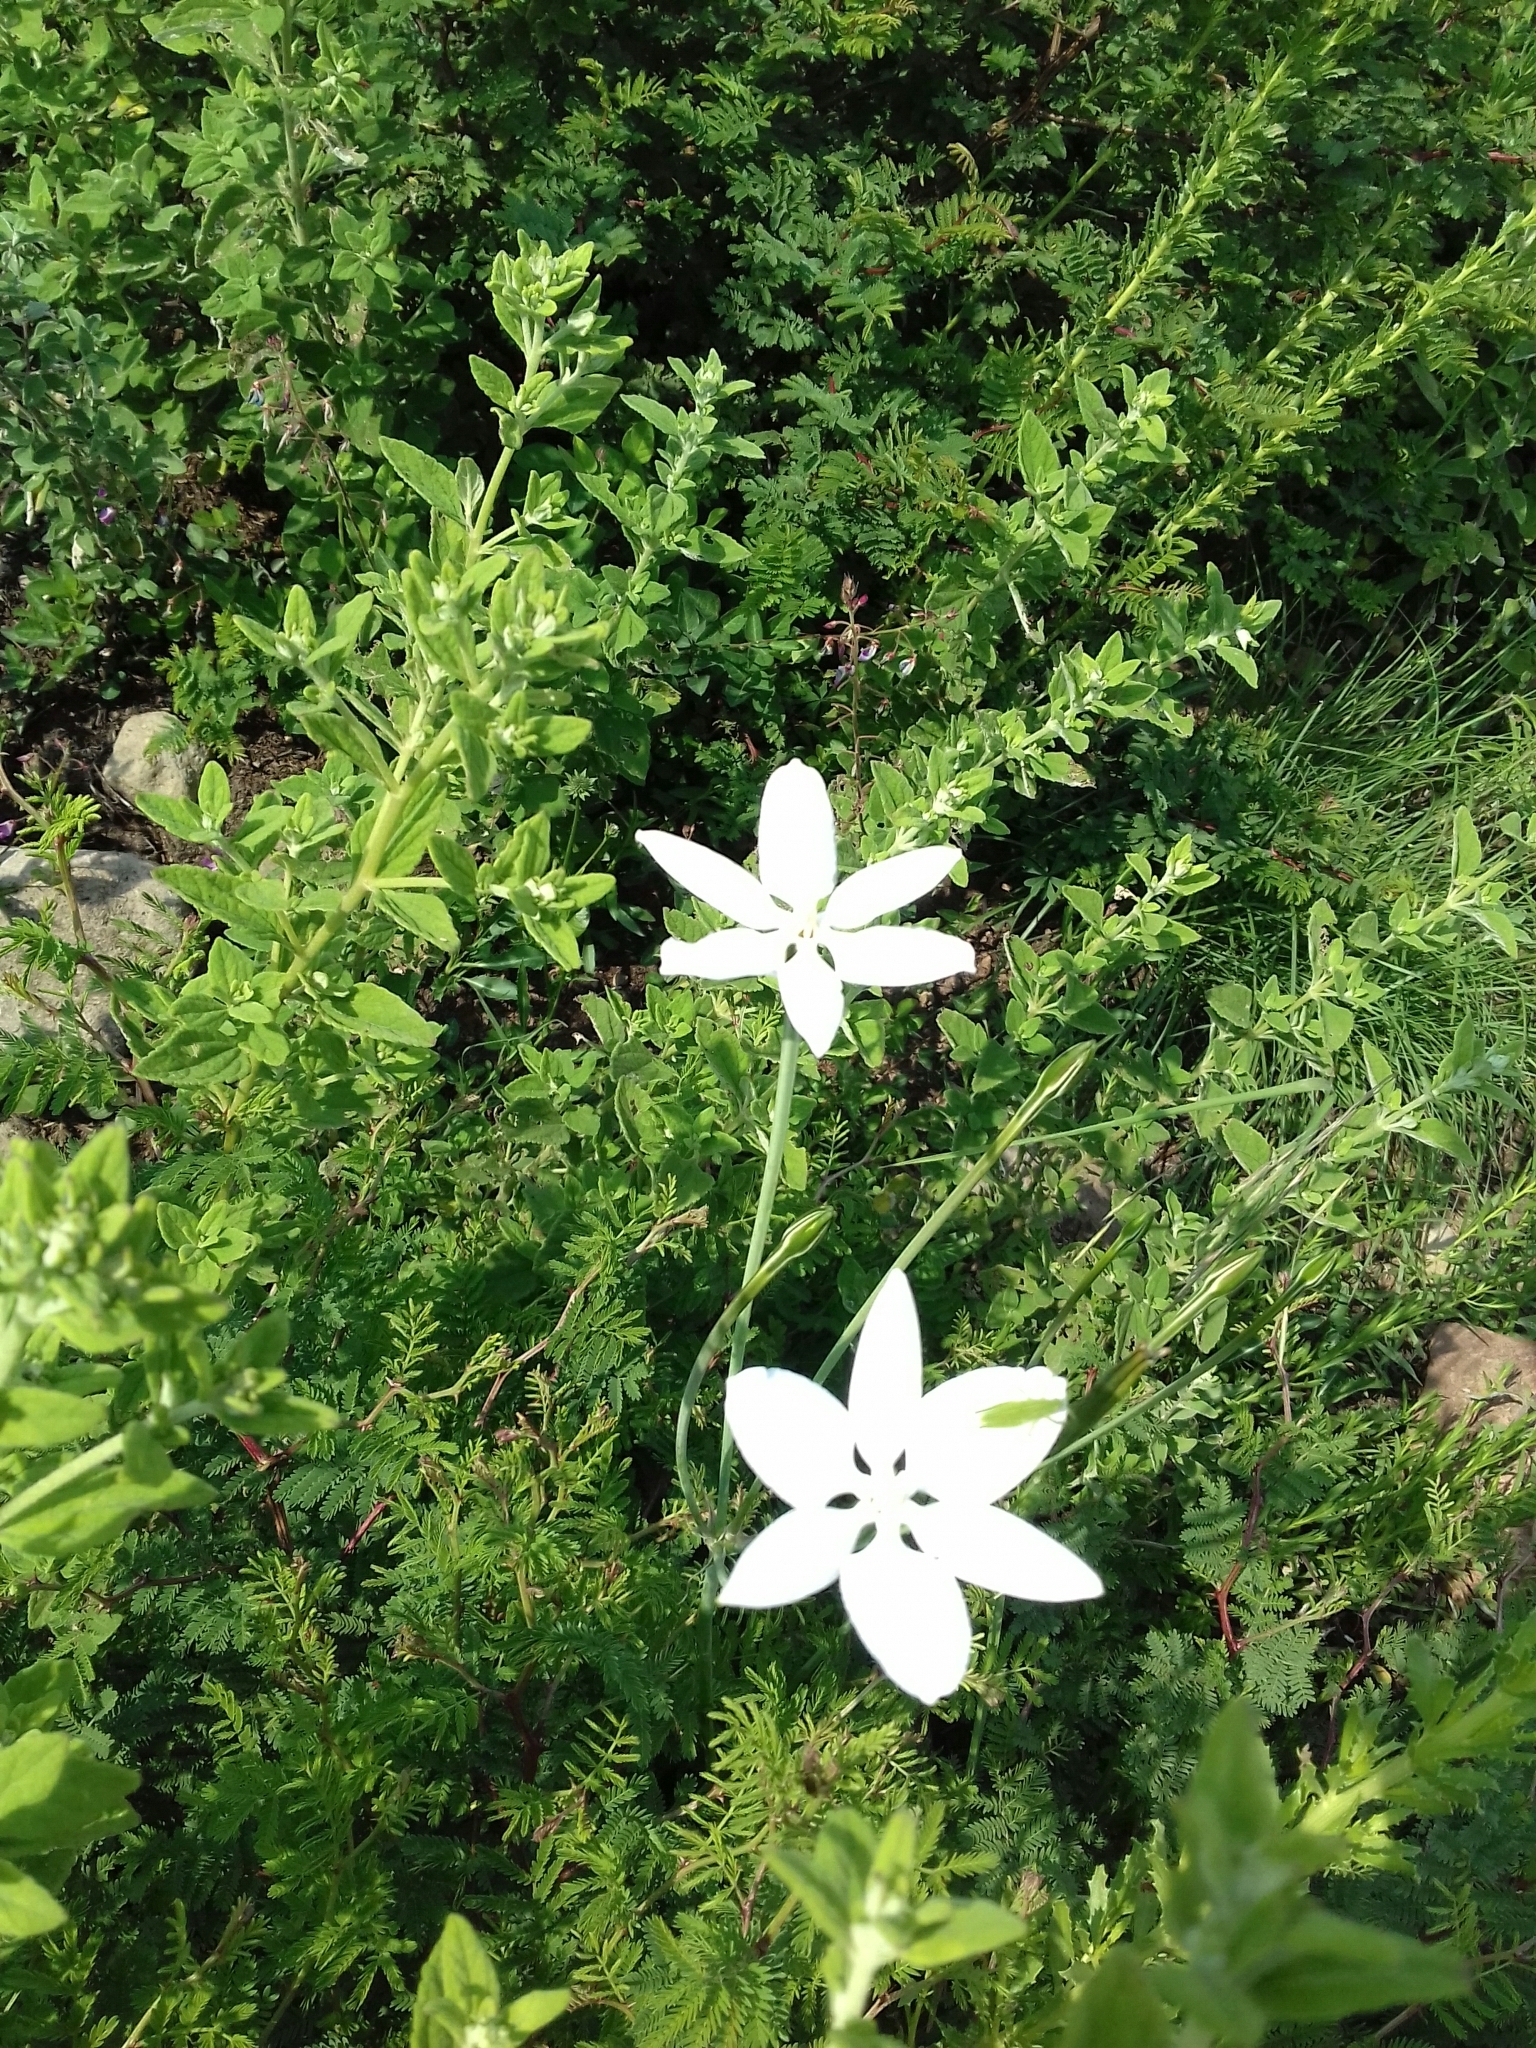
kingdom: Plantae
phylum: Tracheophyta
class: Liliopsida
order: Asparagales
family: Asparagaceae
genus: Milla
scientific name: Milla biflora
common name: Mexican-star
